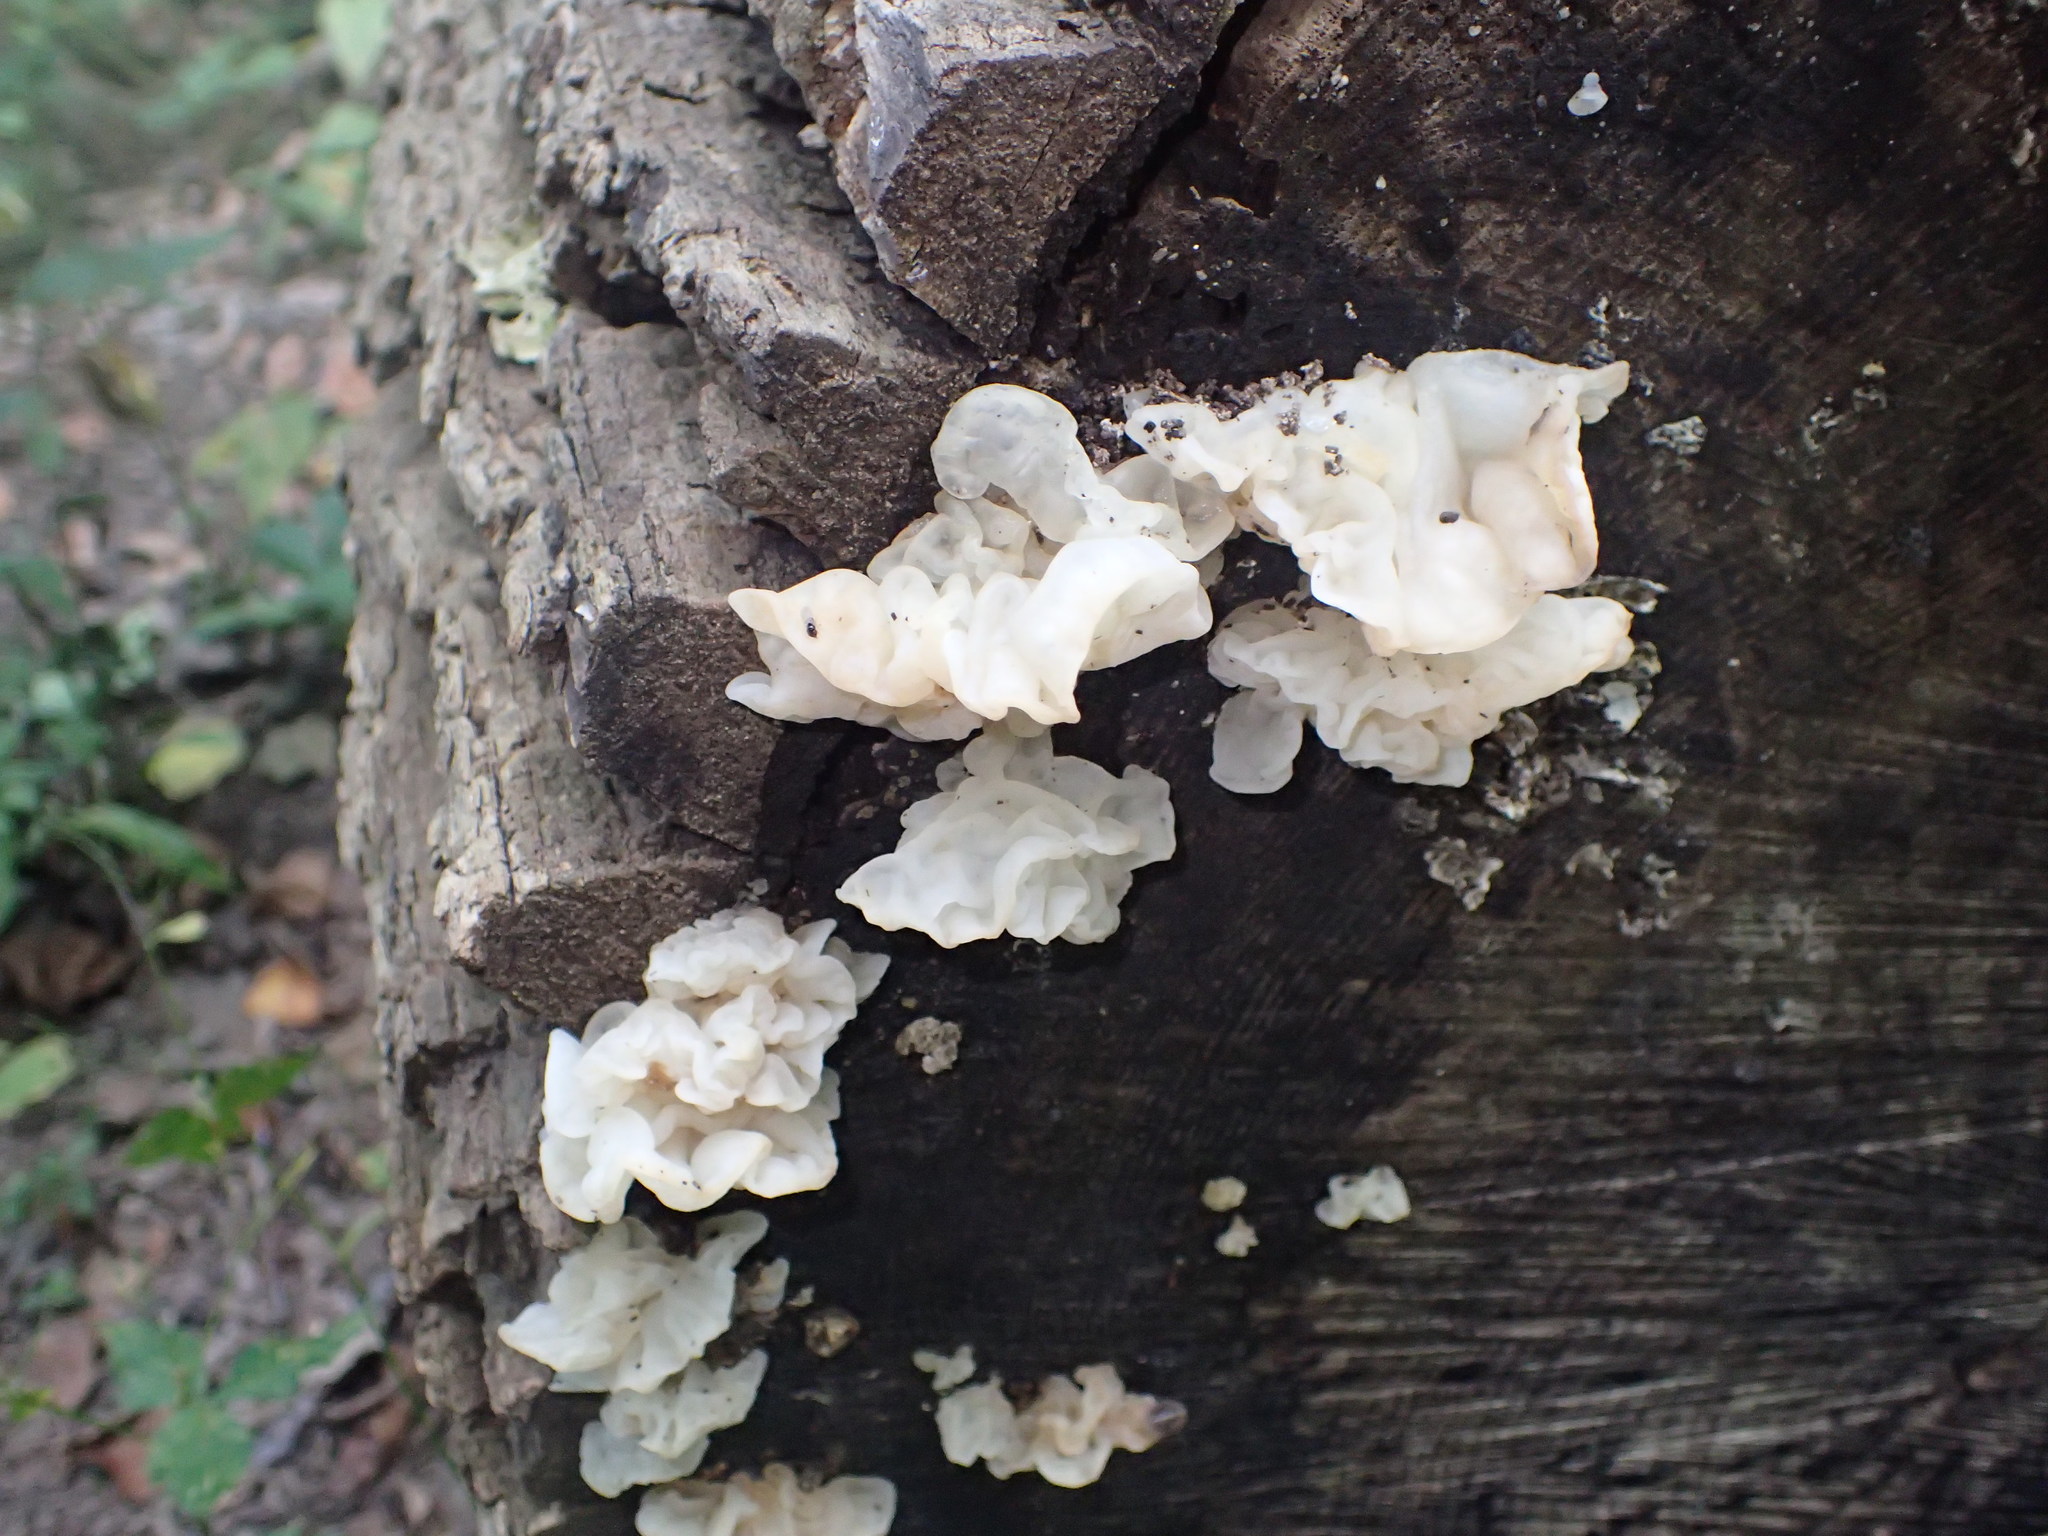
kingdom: Fungi
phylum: Basidiomycota
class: Agaricomycetes
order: Auriculariales
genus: Ductifera
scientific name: Ductifera pululahuana
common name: White jelly fungus
